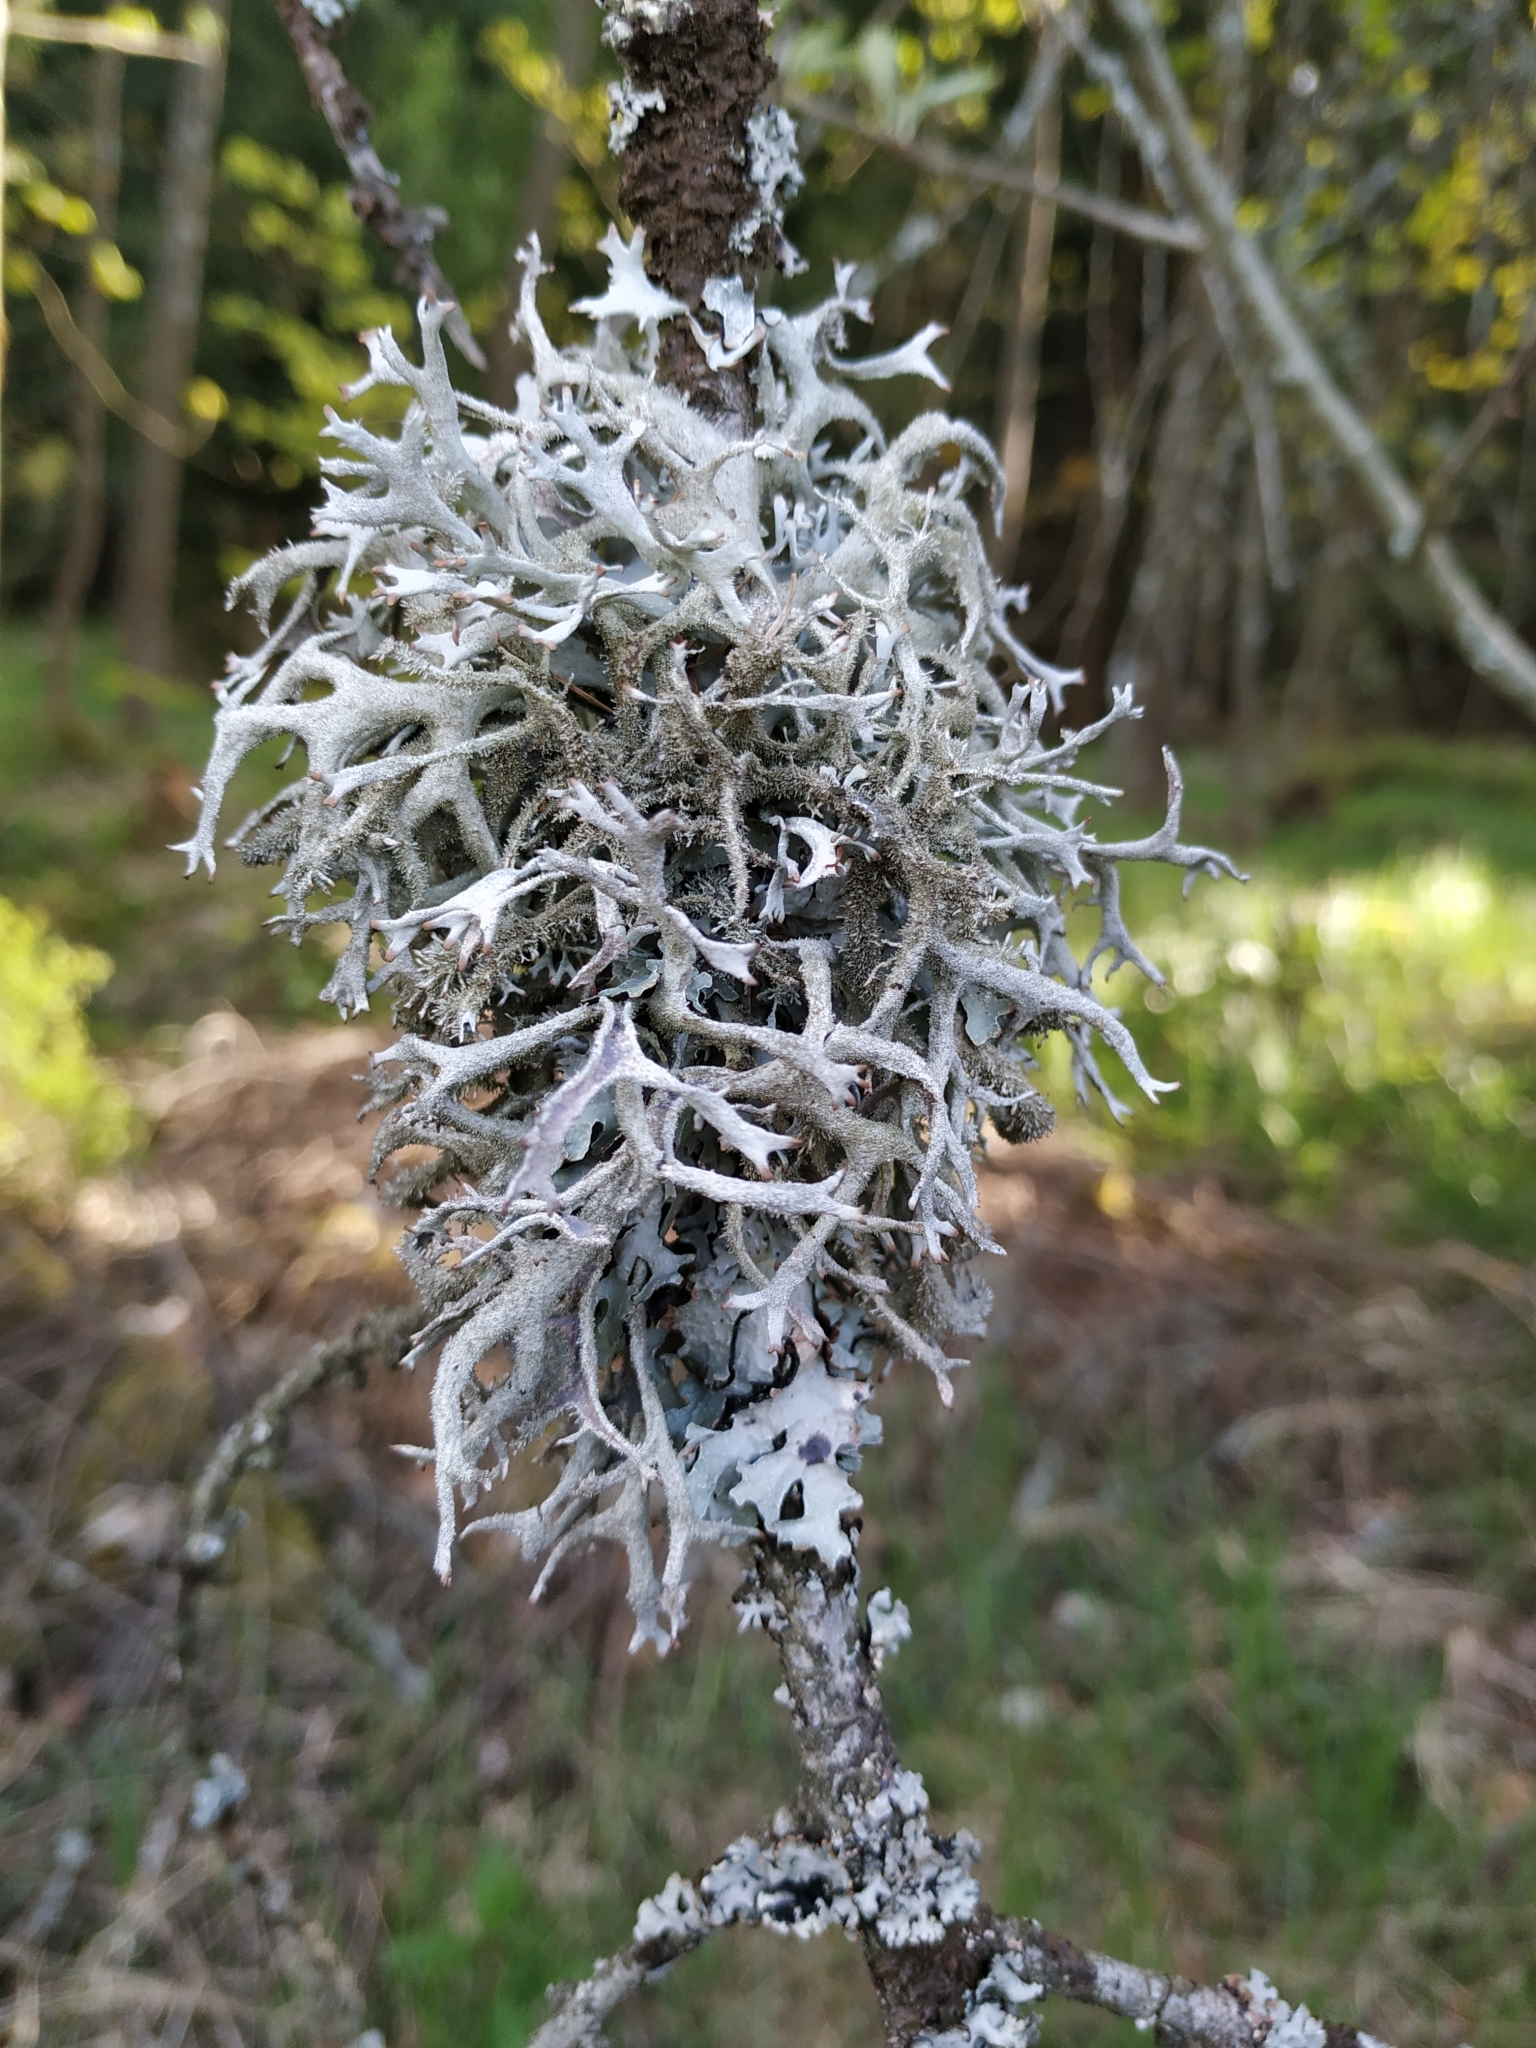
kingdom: Fungi
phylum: Ascomycota
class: Lecanoromycetes
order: Lecanorales
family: Parmeliaceae
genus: Pseudevernia
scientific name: Pseudevernia furfuracea
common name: Tree moss
